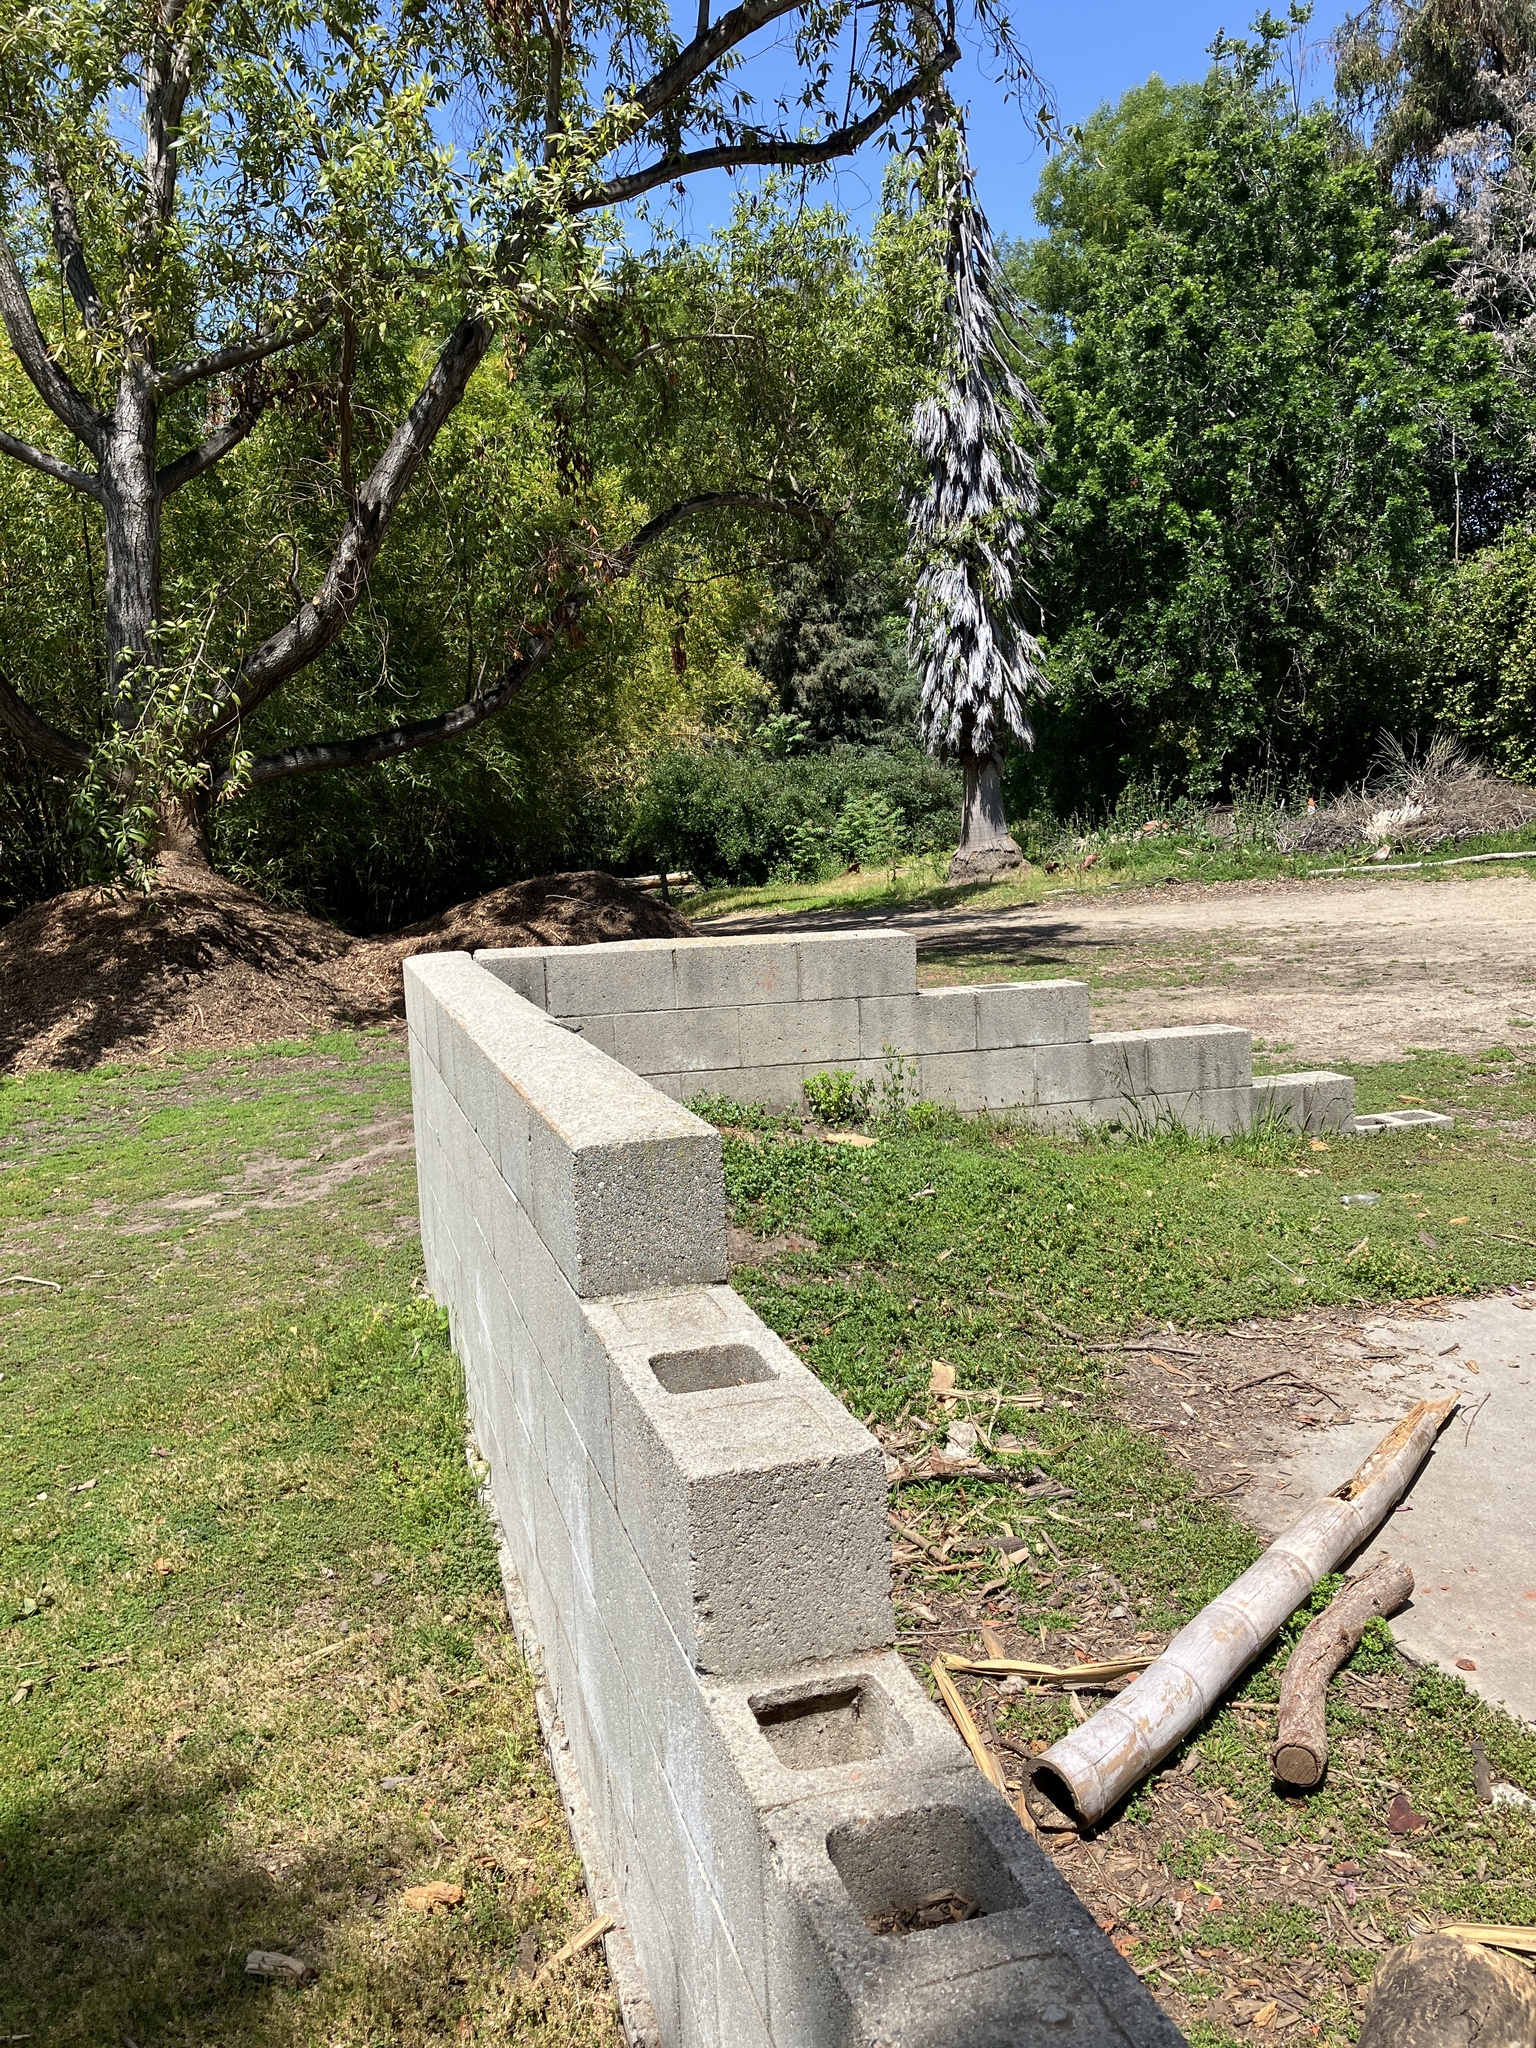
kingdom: Animalia
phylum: Chordata
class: Squamata
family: Phrynosomatidae
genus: Sceloporus
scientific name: Sceloporus occidentalis
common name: Western fence lizard
